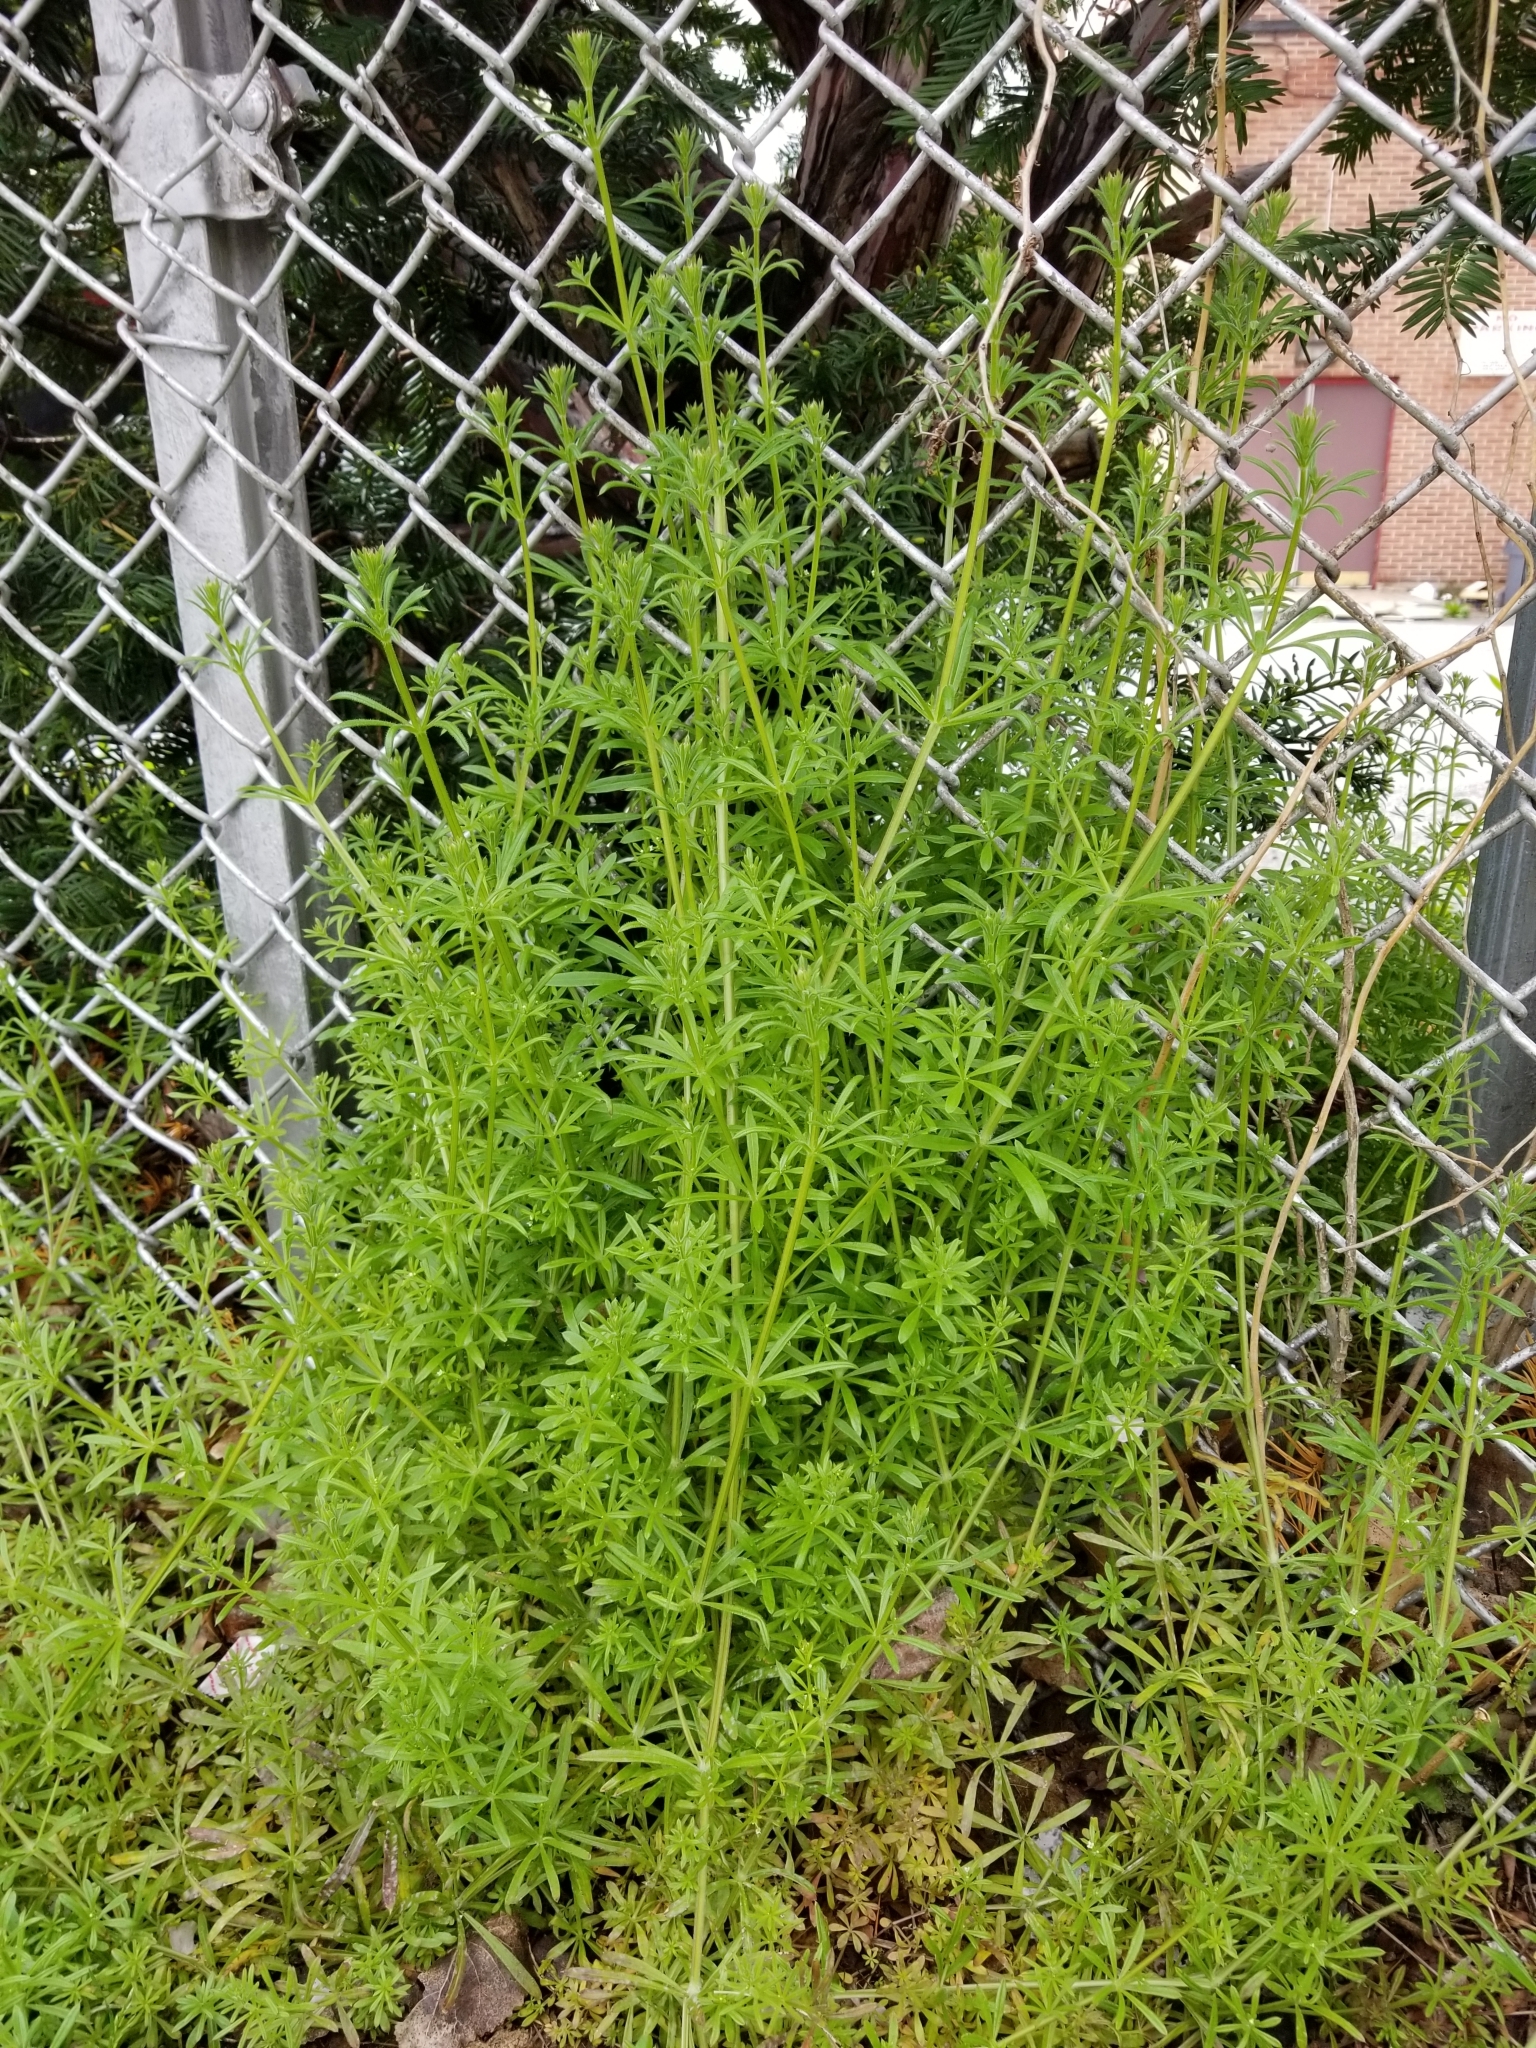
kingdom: Plantae
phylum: Tracheophyta
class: Magnoliopsida
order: Gentianales
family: Rubiaceae
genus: Galium
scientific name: Galium aparine
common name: Cleavers
